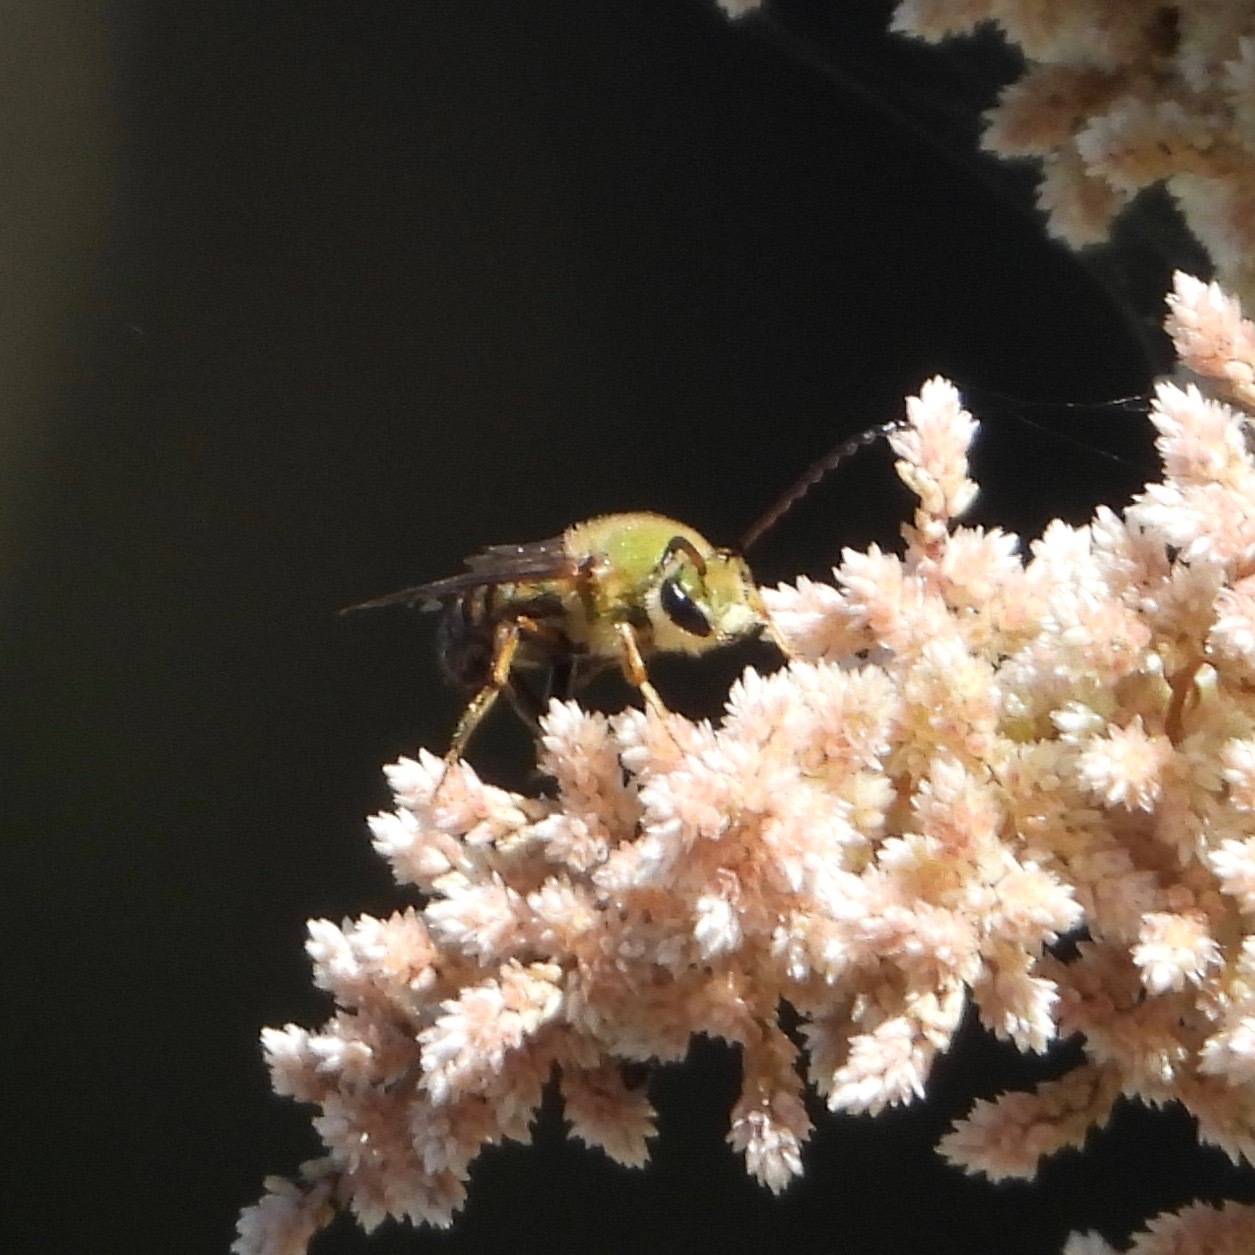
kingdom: Animalia
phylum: Arthropoda
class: Insecta
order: Hymenoptera
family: Halictidae
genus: Dinagapostemon
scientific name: Dinagapostemon sicheli
